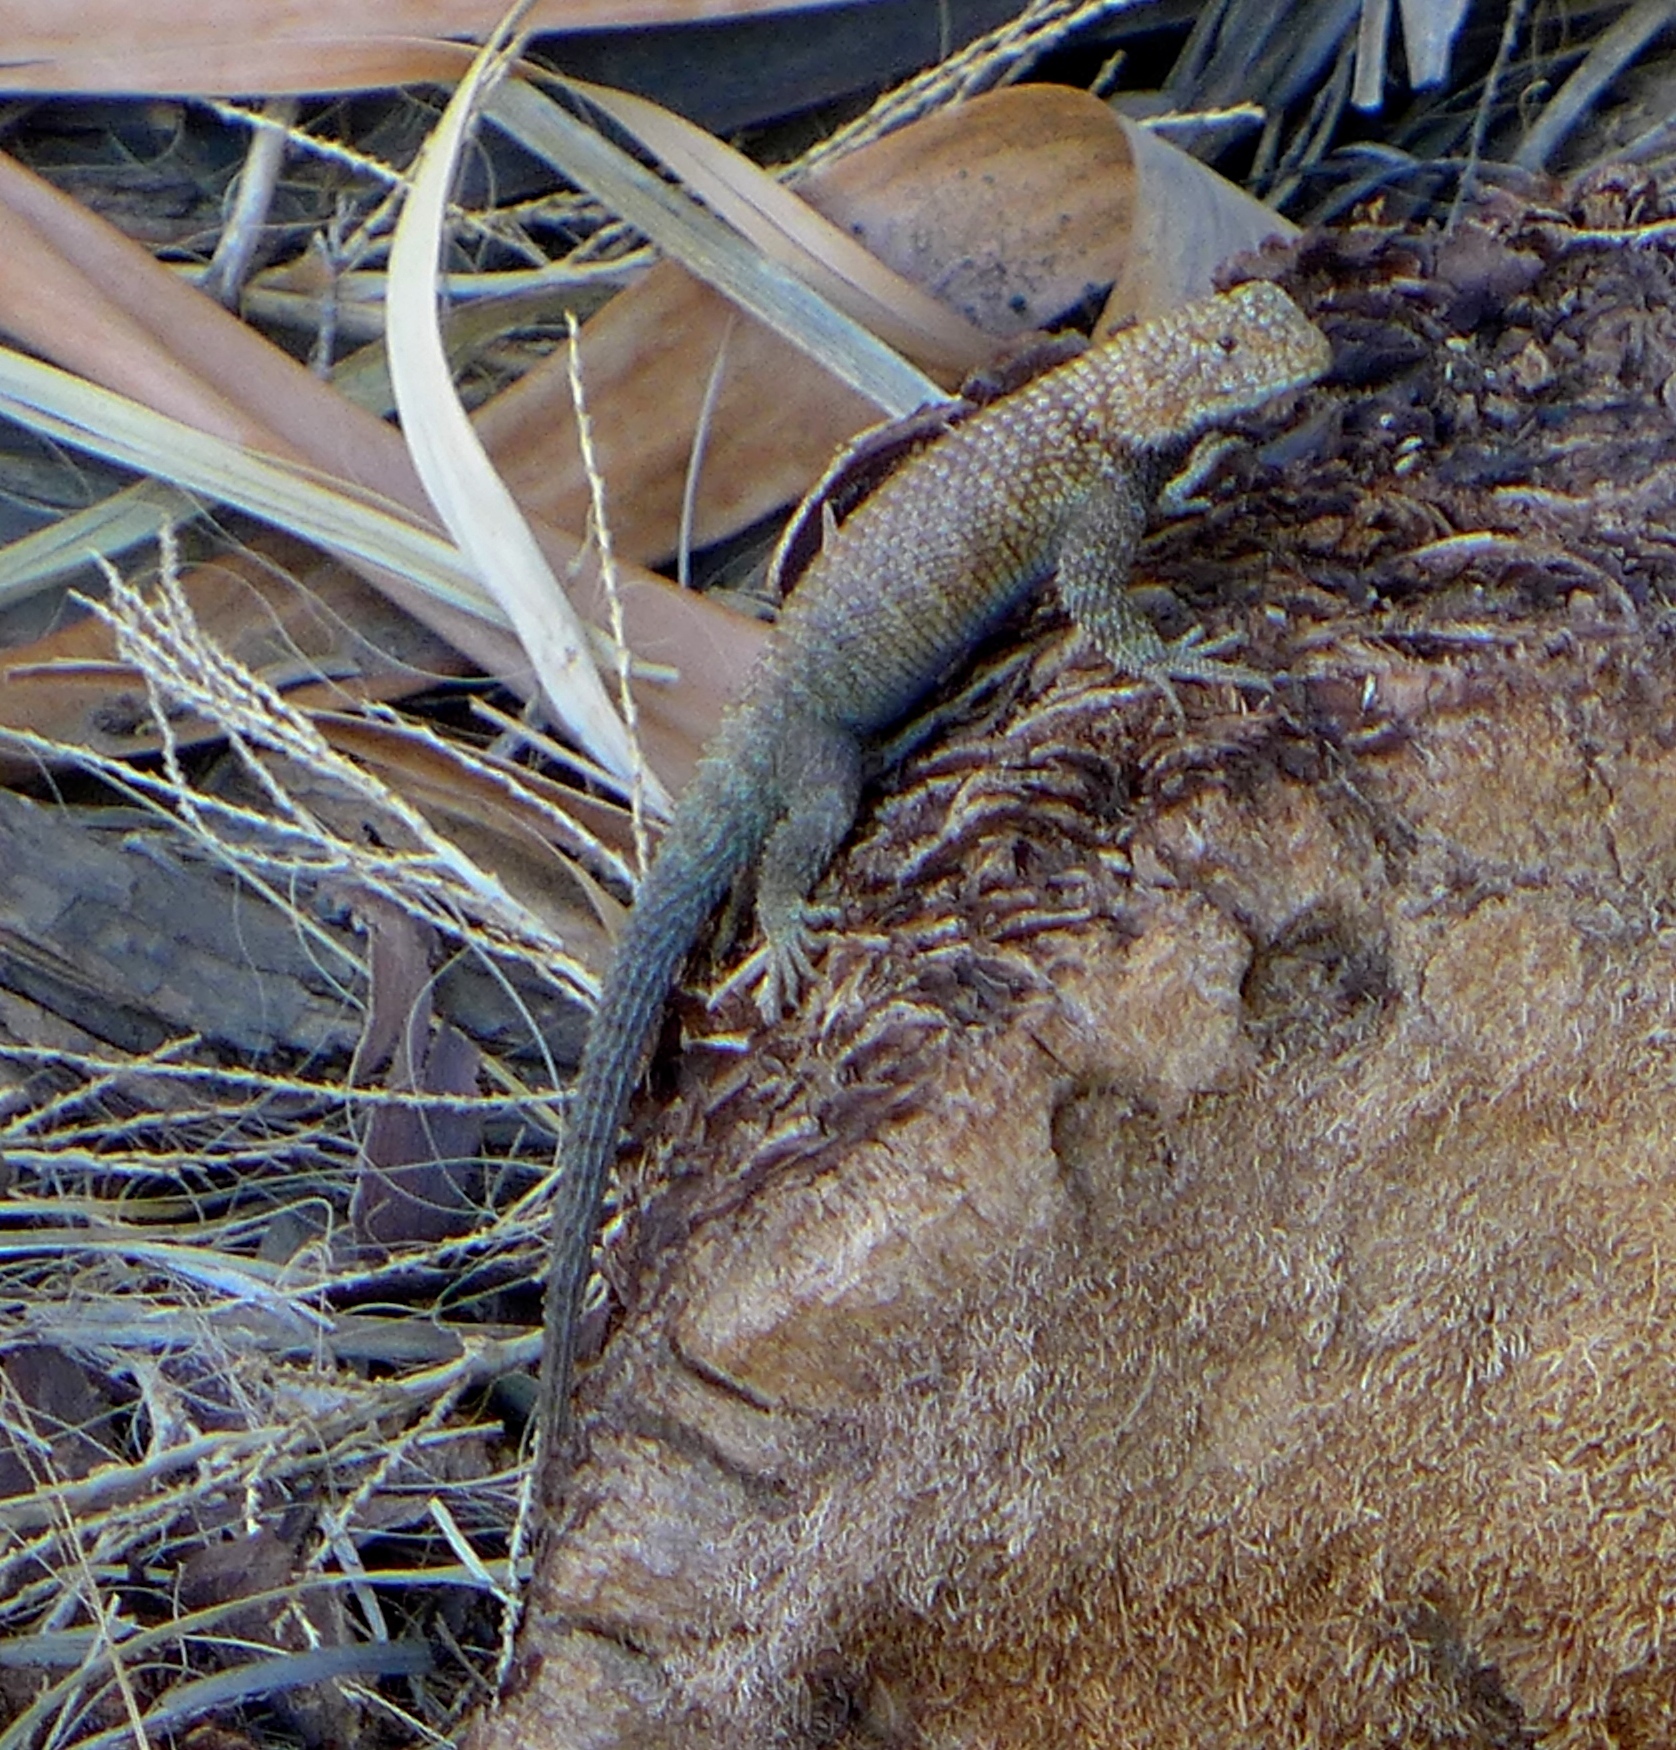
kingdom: Animalia
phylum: Chordata
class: Squamata
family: Phrynosomatidae
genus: Sceloporus
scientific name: Sceloporus orcutti
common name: Granite spiny lizard
